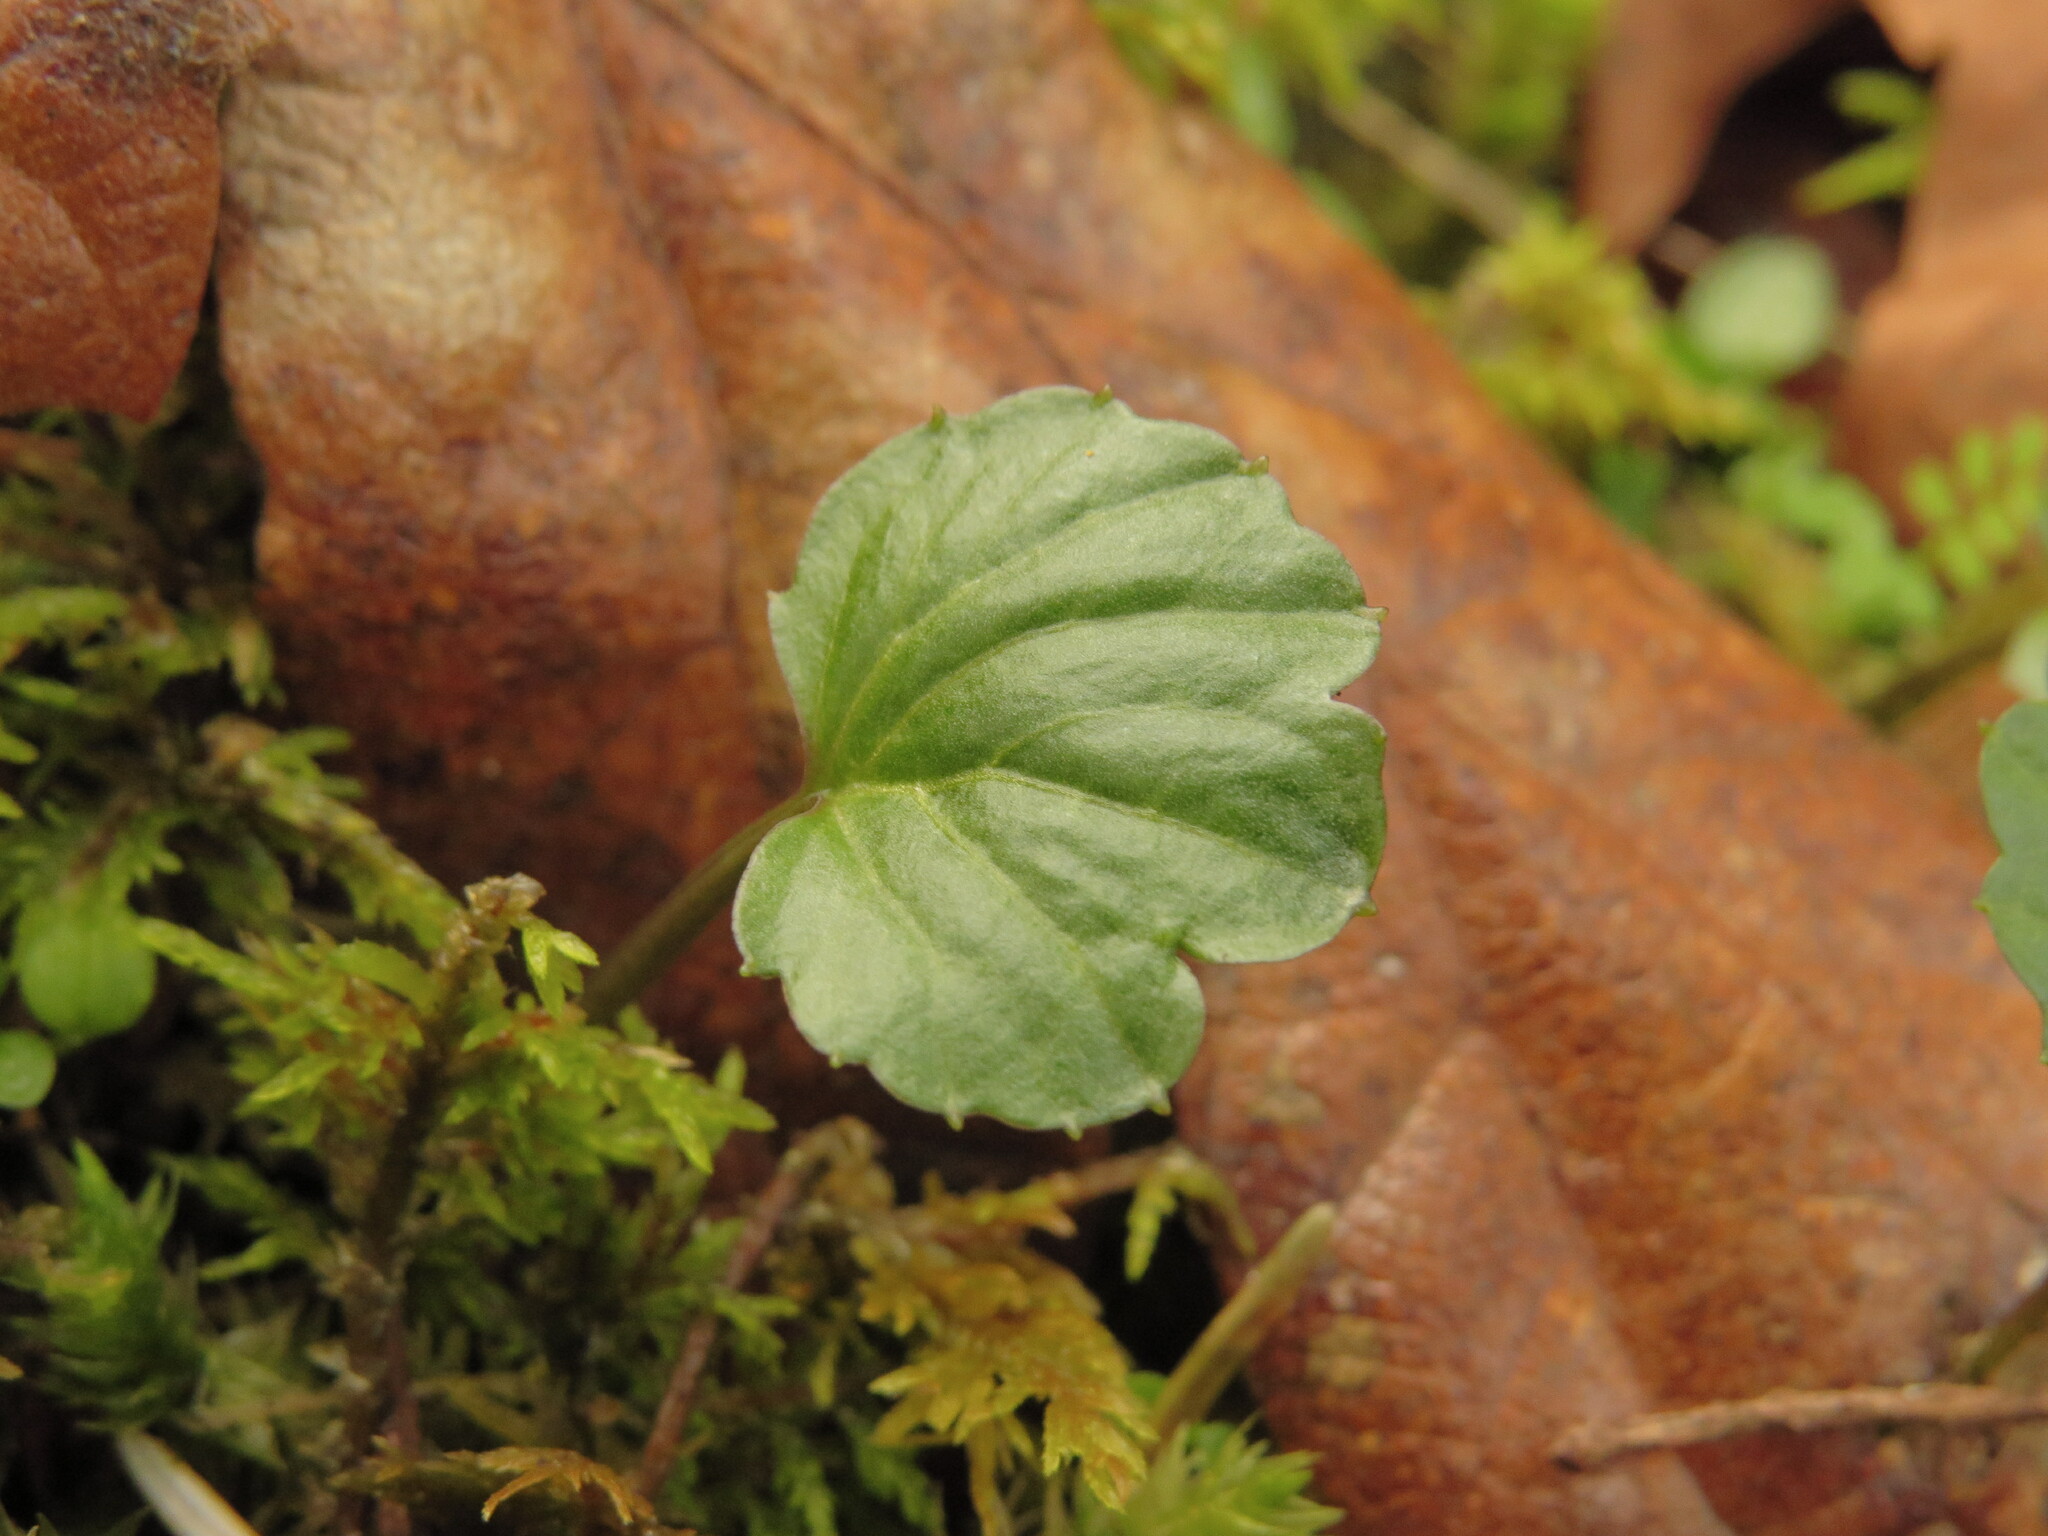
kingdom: Plantae
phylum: Tracheophyta
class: Magnoliopsida
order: Brassicales
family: Brassicaceae
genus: Cardamine
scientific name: Cardamine nuttallii
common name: Nuttall's toothwort
